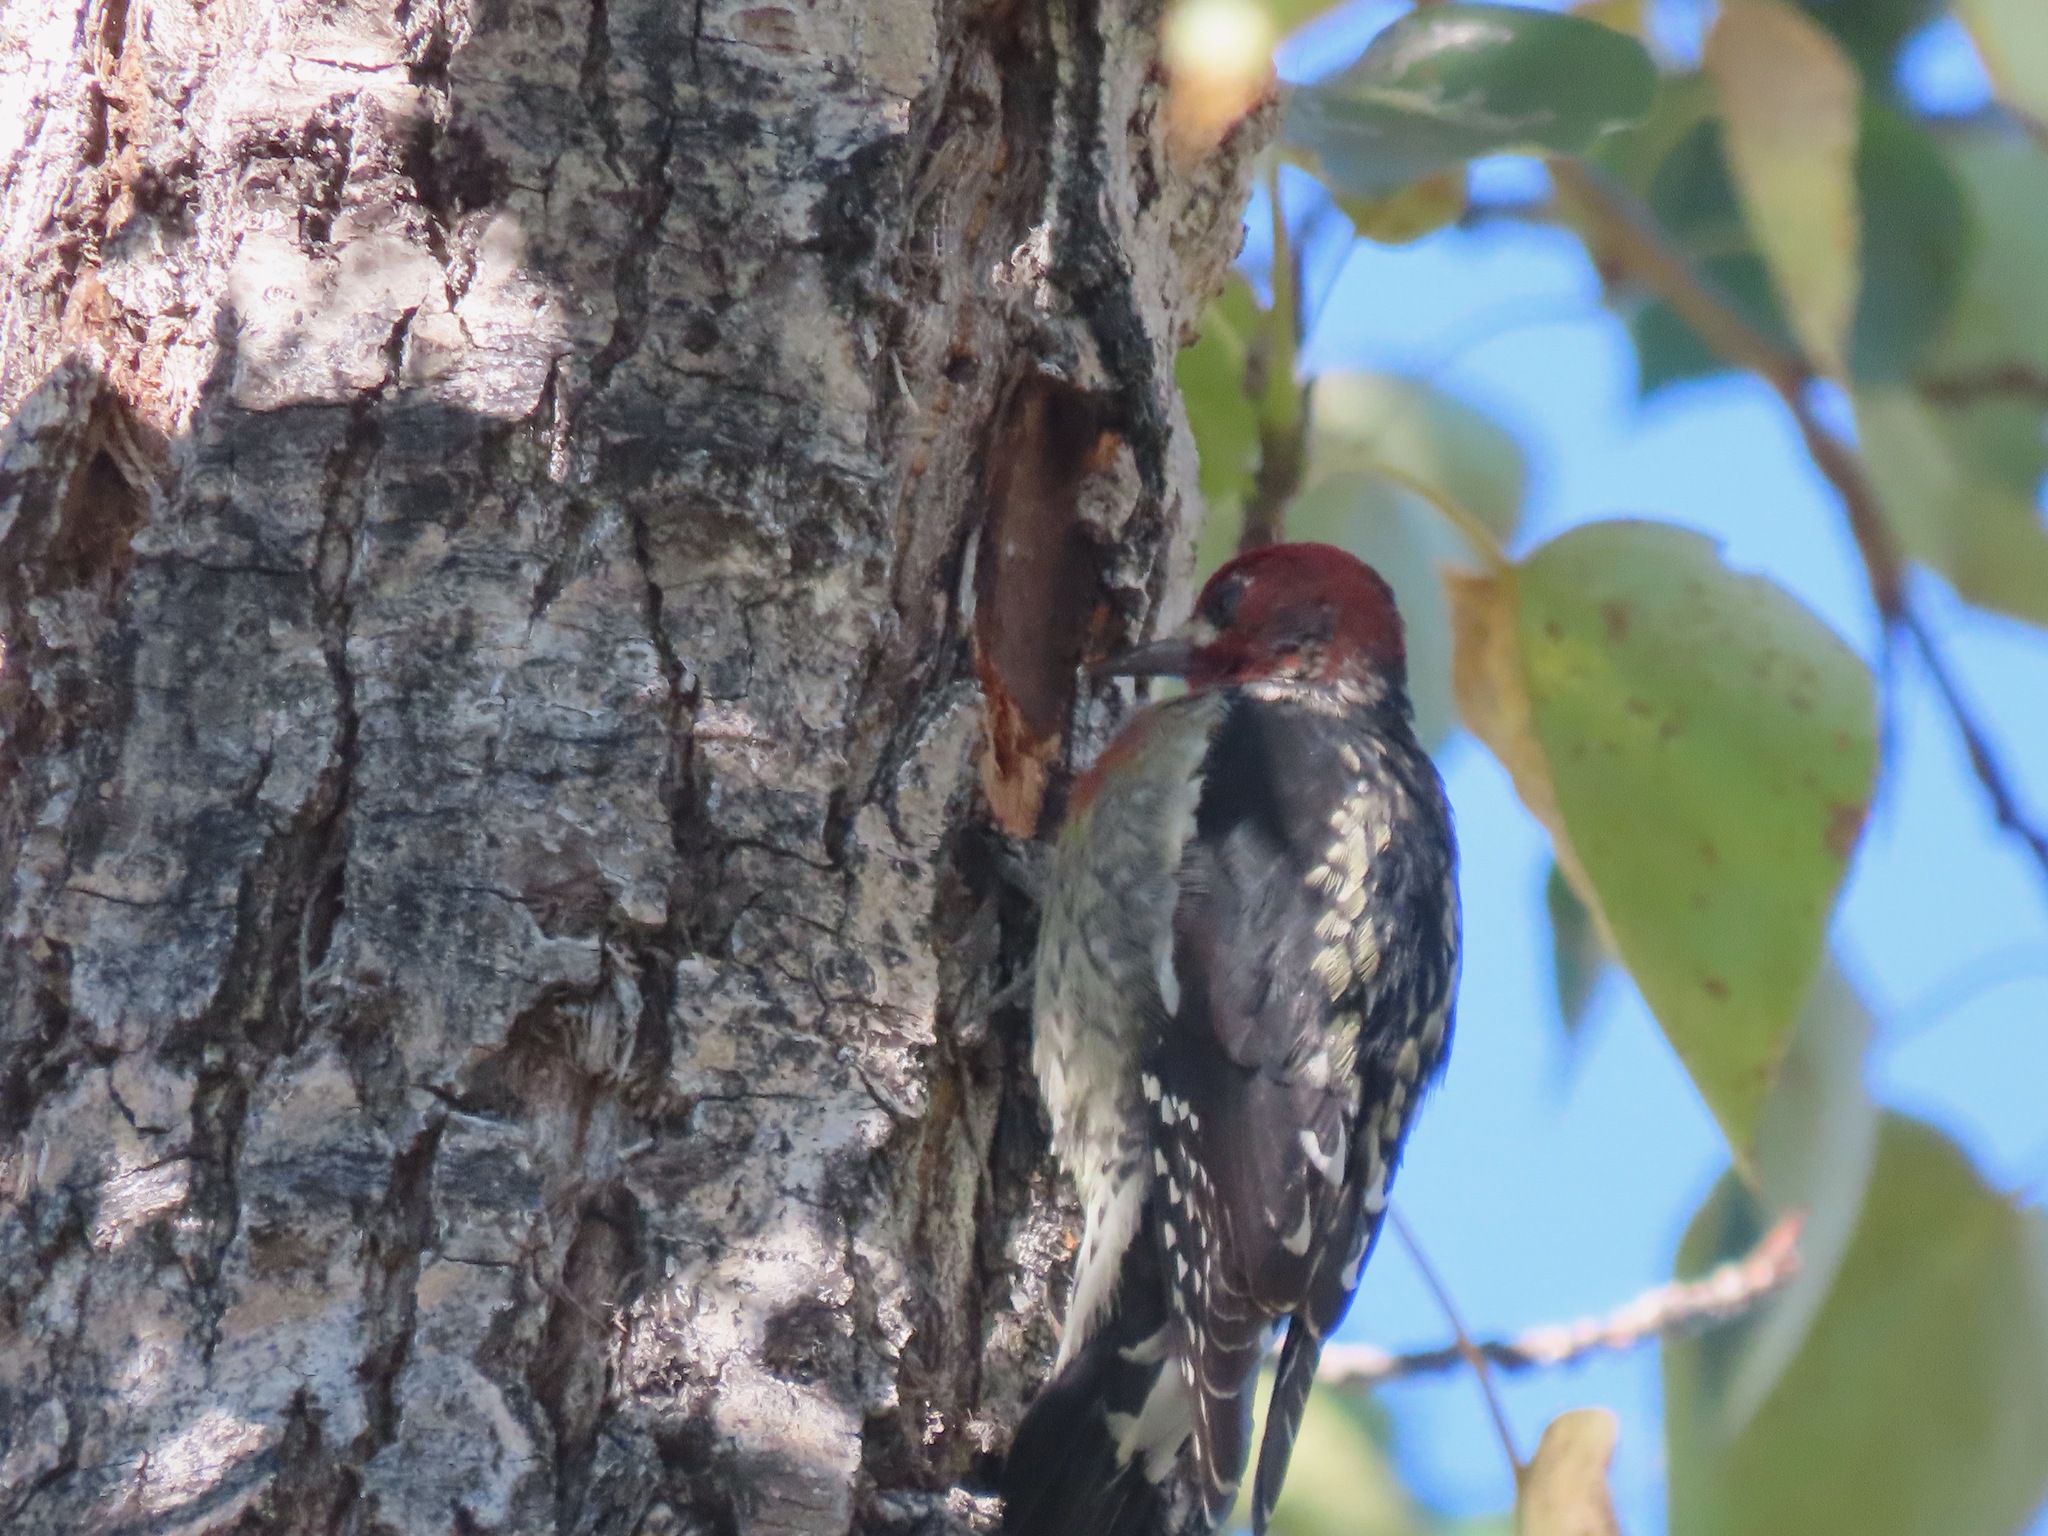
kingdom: Animalia
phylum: Chordata
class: Aves
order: Piciformes
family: Picidae
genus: Sphyrapicus
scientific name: Sphyrapicus ruber
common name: Red-breasted sapsucker
